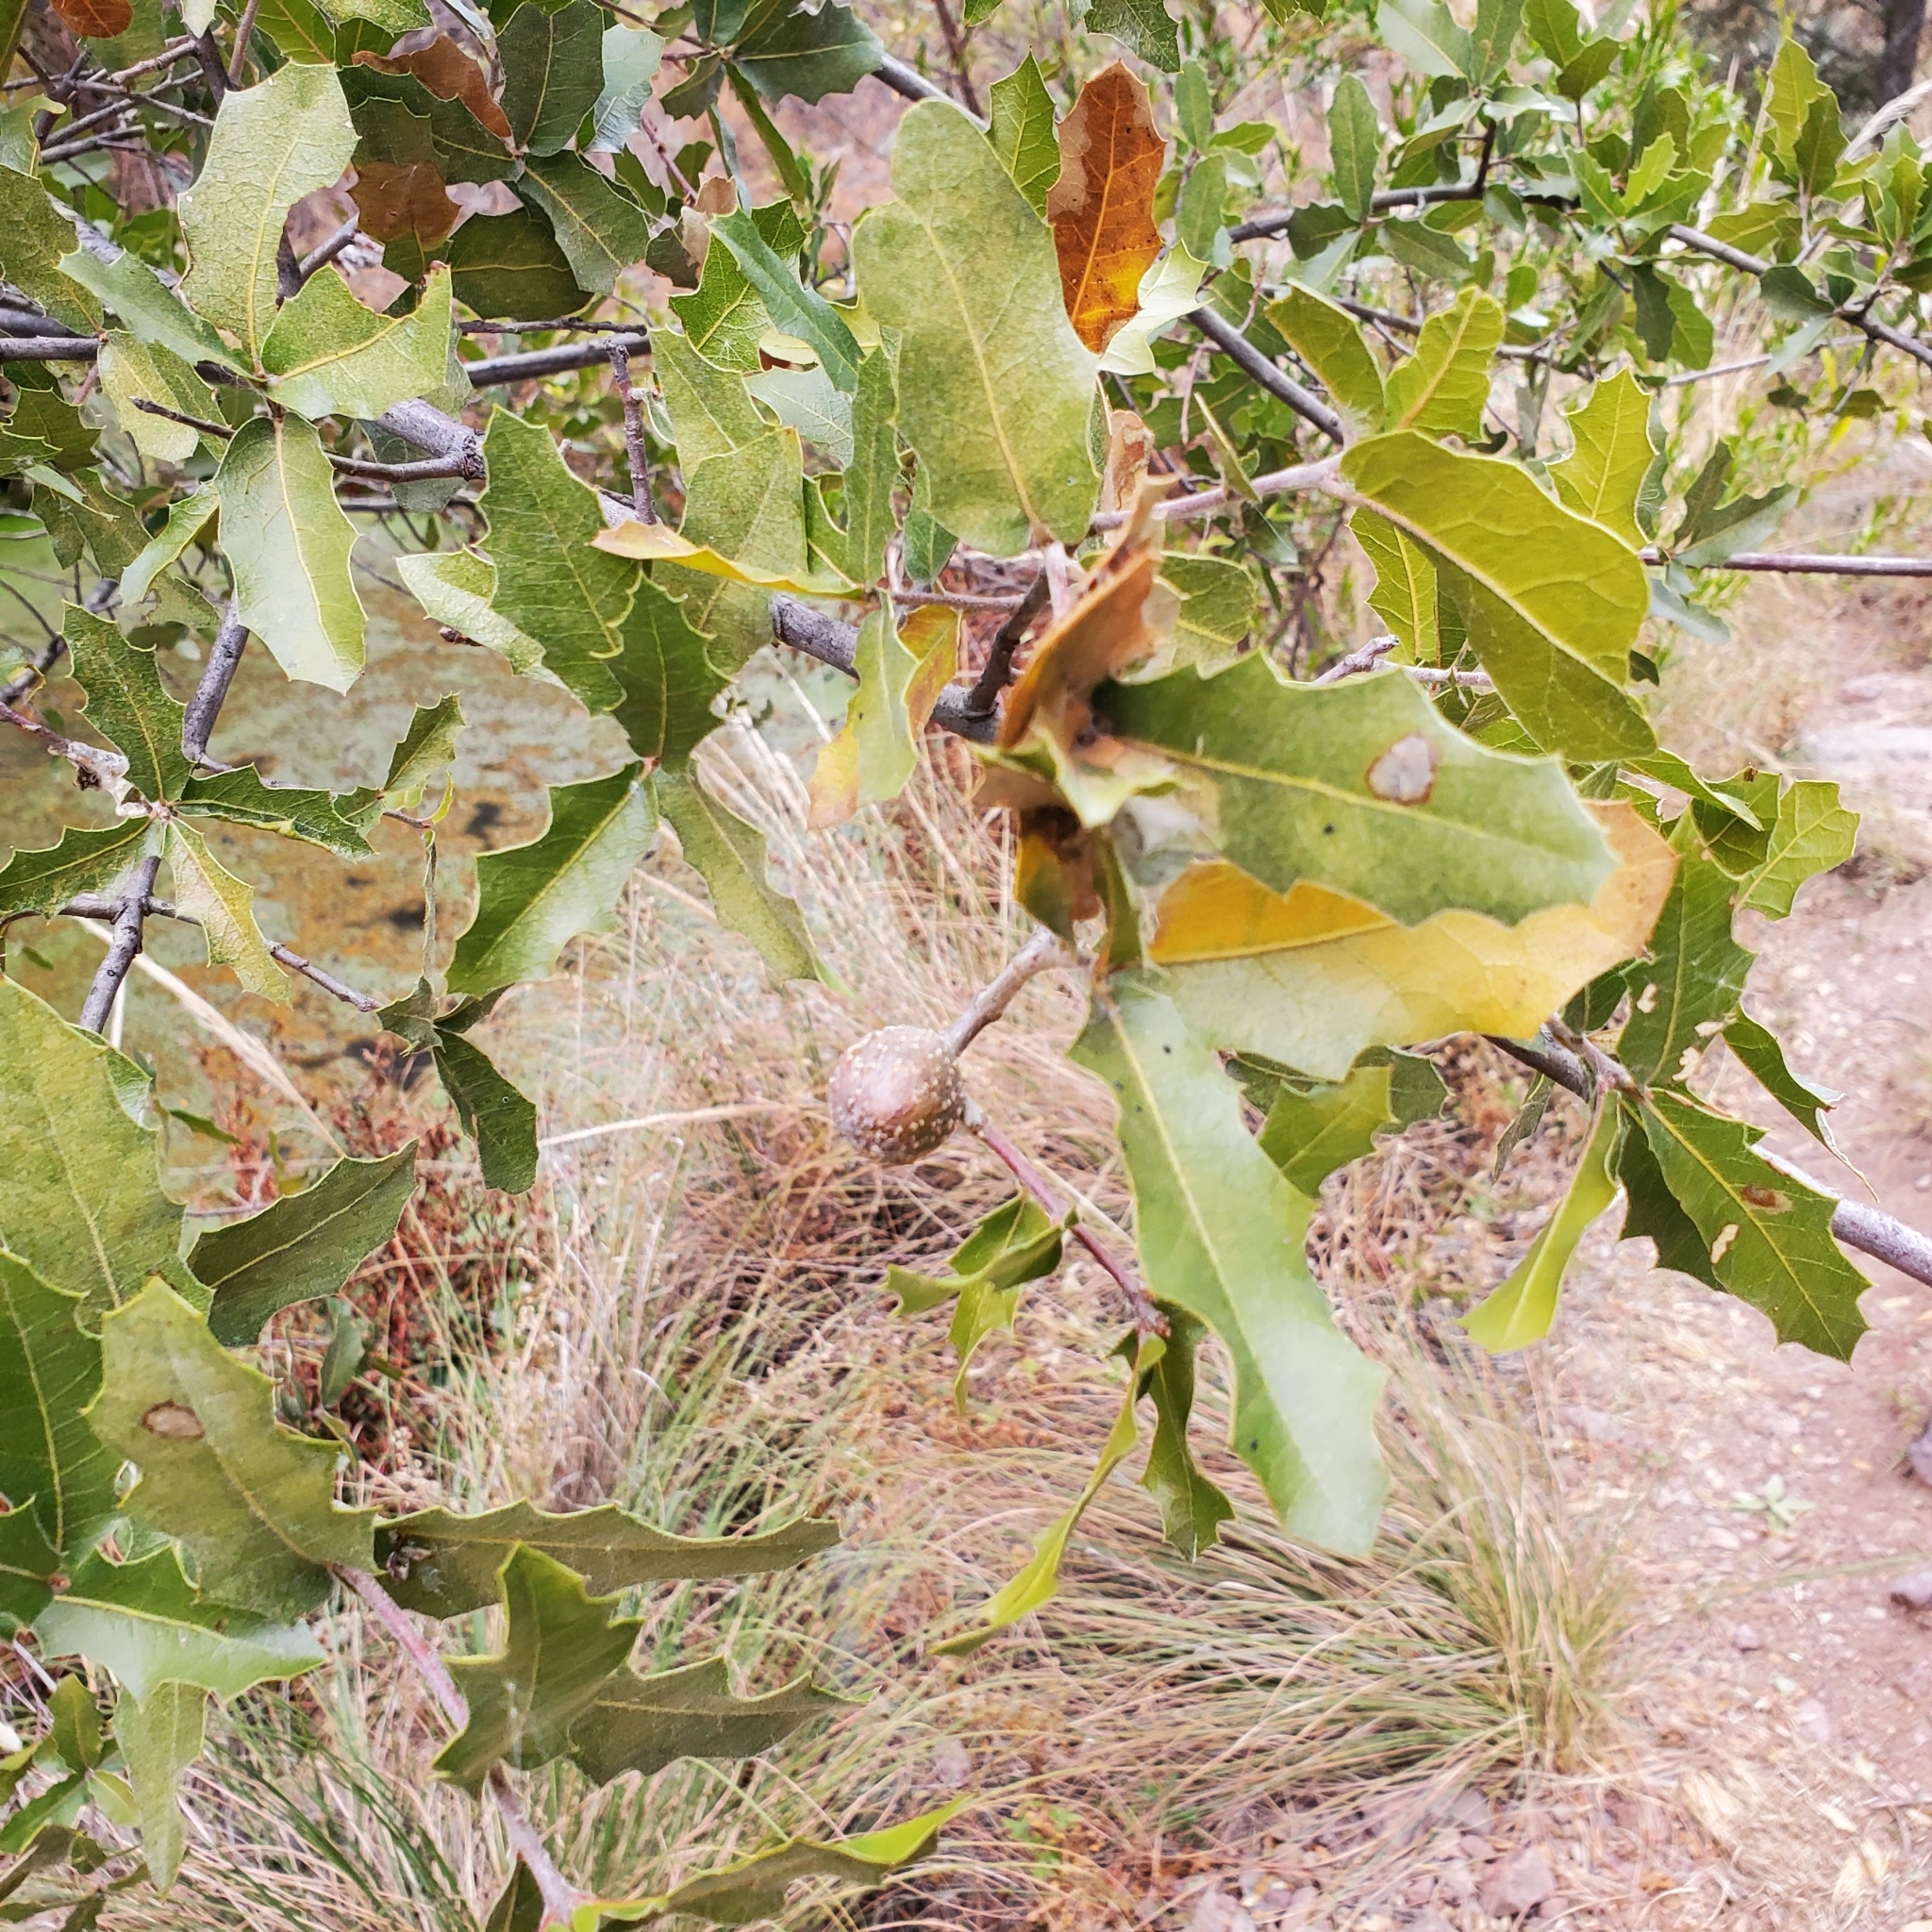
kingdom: Plantae
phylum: Tracheophyta
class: Magnoliopsida
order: Fagales
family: Fagaceae
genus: Quercus
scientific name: Quercus emoryi
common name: Emory oak
